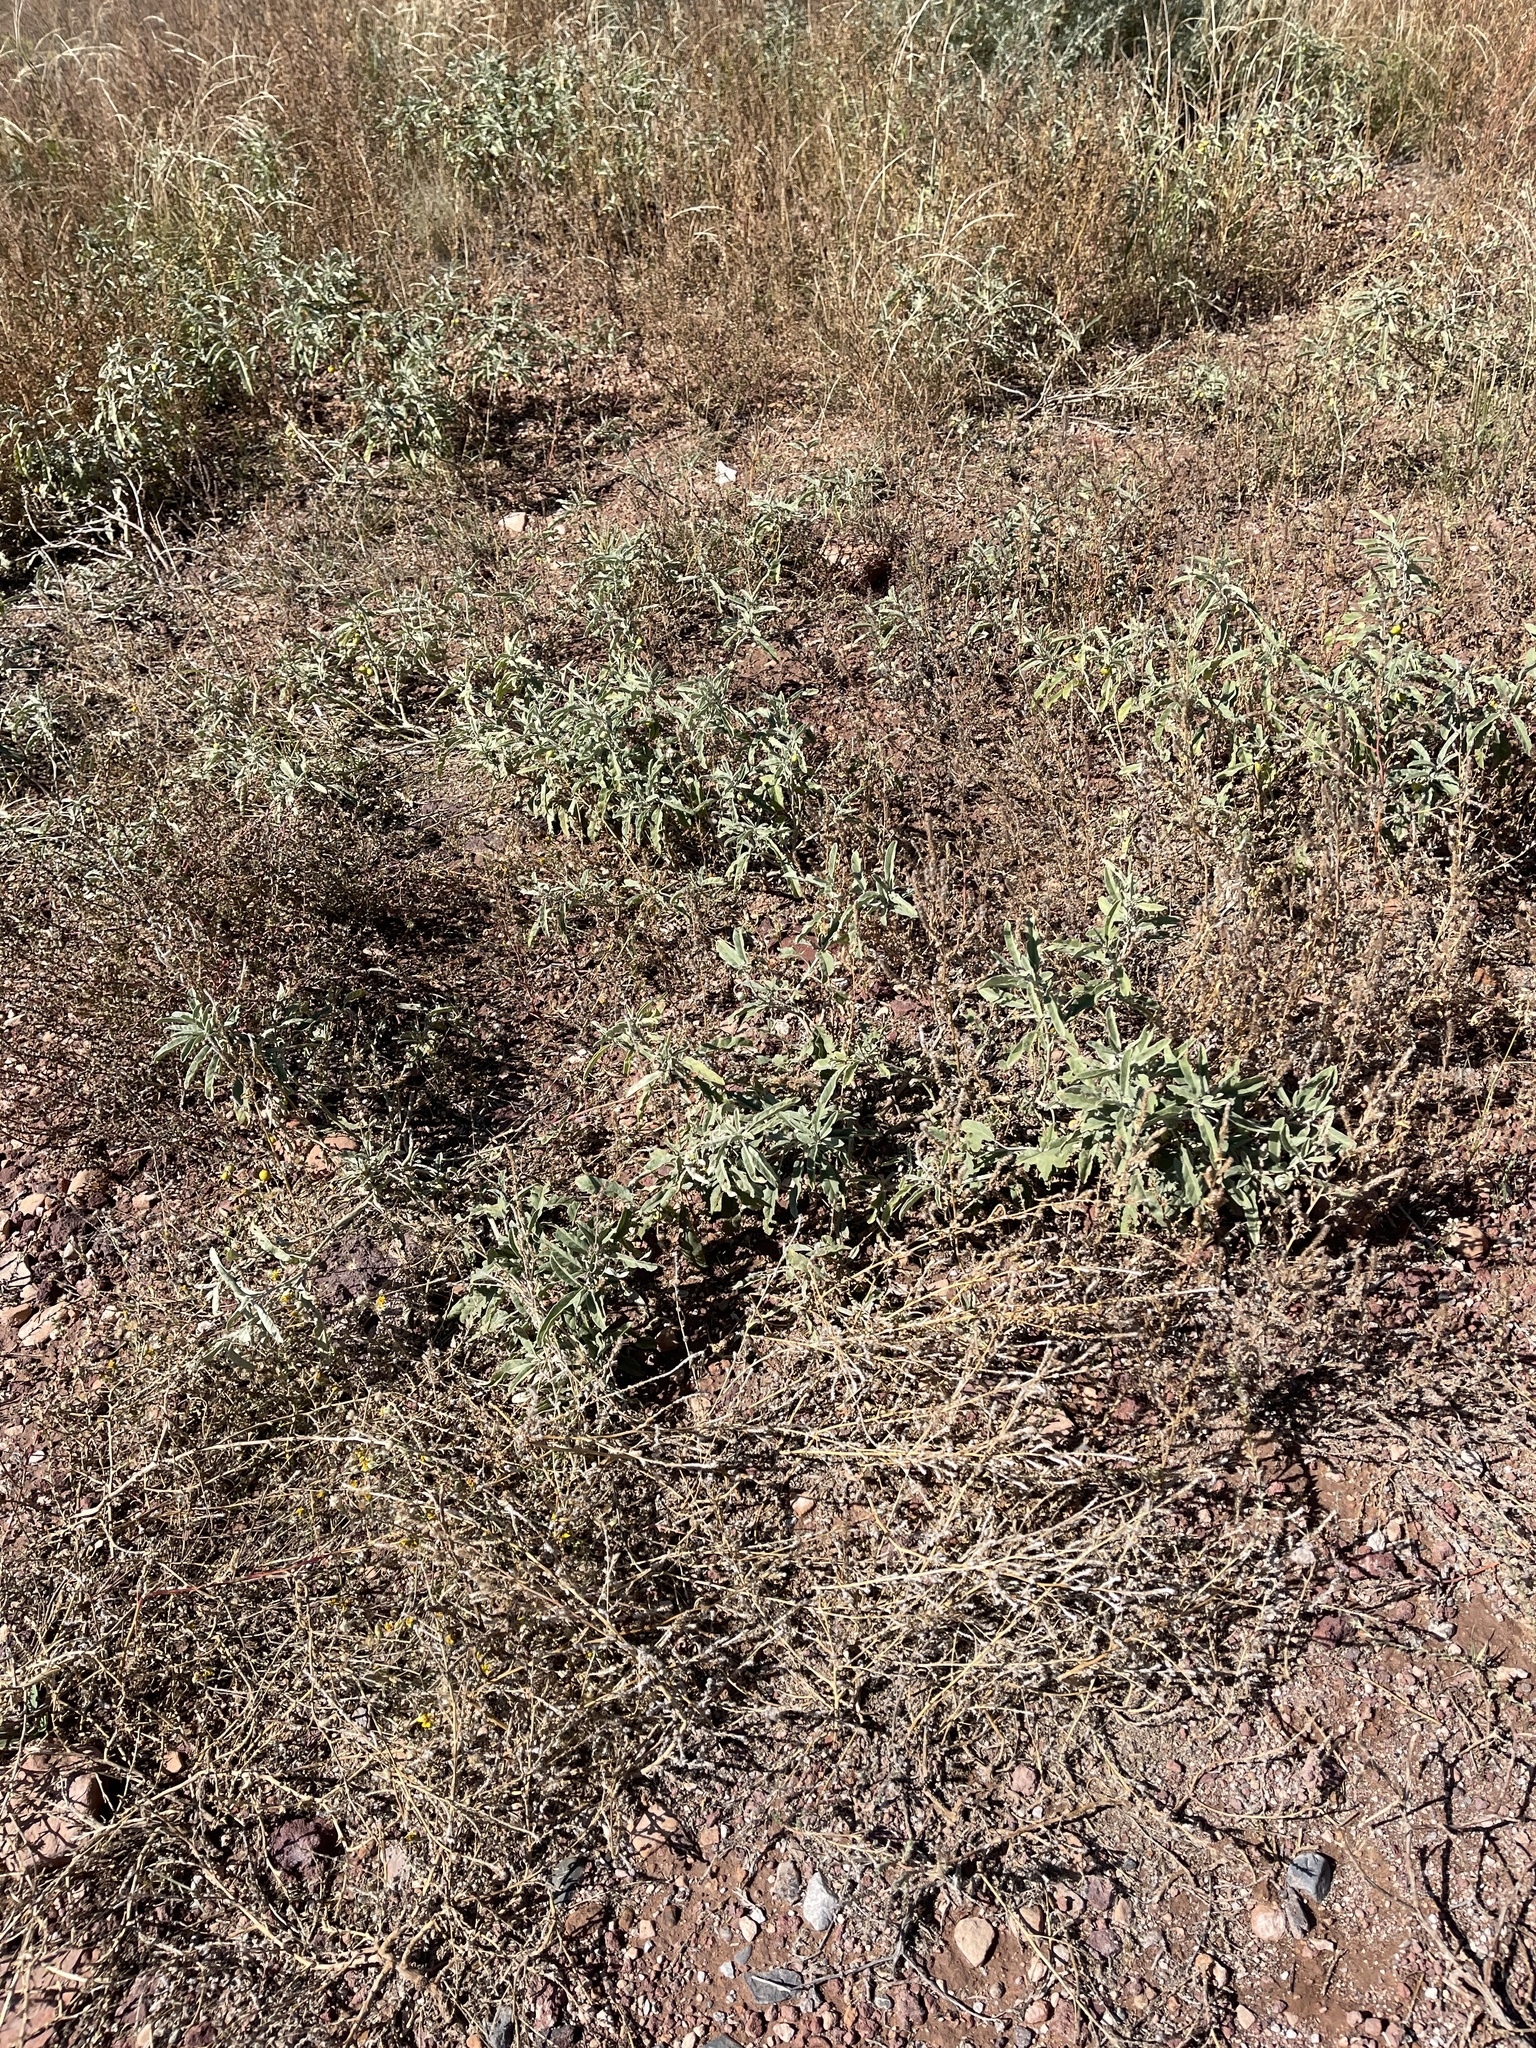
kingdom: Plantae
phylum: Tracheophyta
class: Magnoliopsida
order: Solanales
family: Solanaceae
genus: Solanum
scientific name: Solanum elaeagnifolium
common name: Silverleaf nightshade
